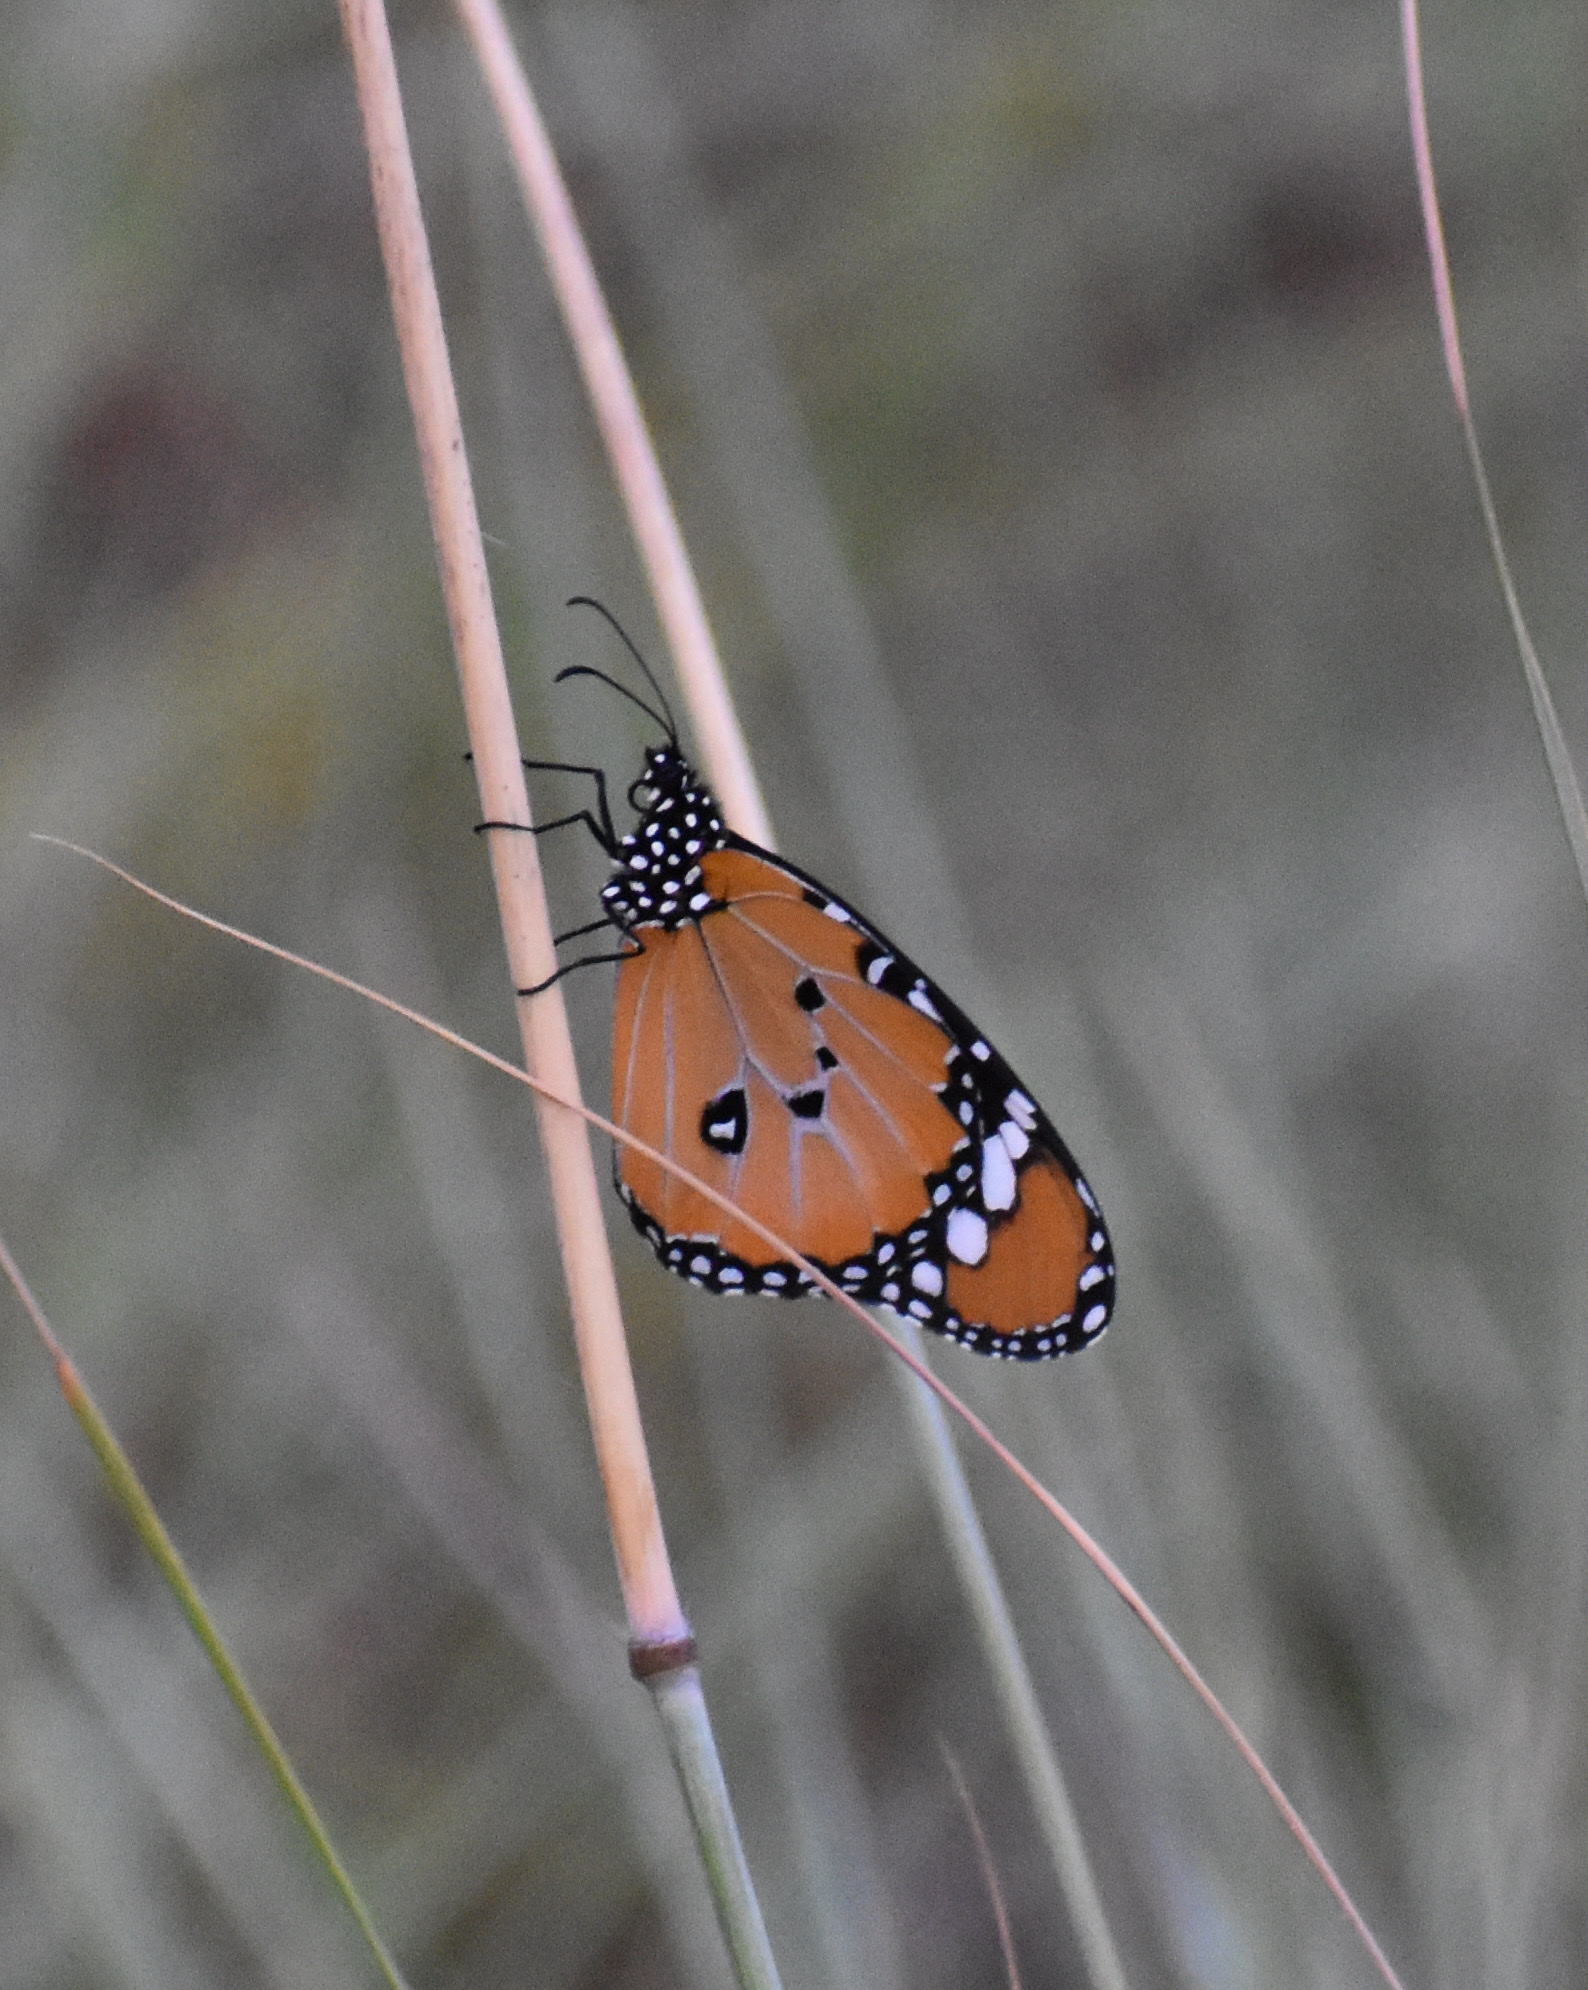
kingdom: Animalia
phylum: Arthropoda
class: Insecta
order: Lepidoptera
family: Nymphalidae
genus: Danaus
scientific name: Danaus chrysippus
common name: Plain tiger
